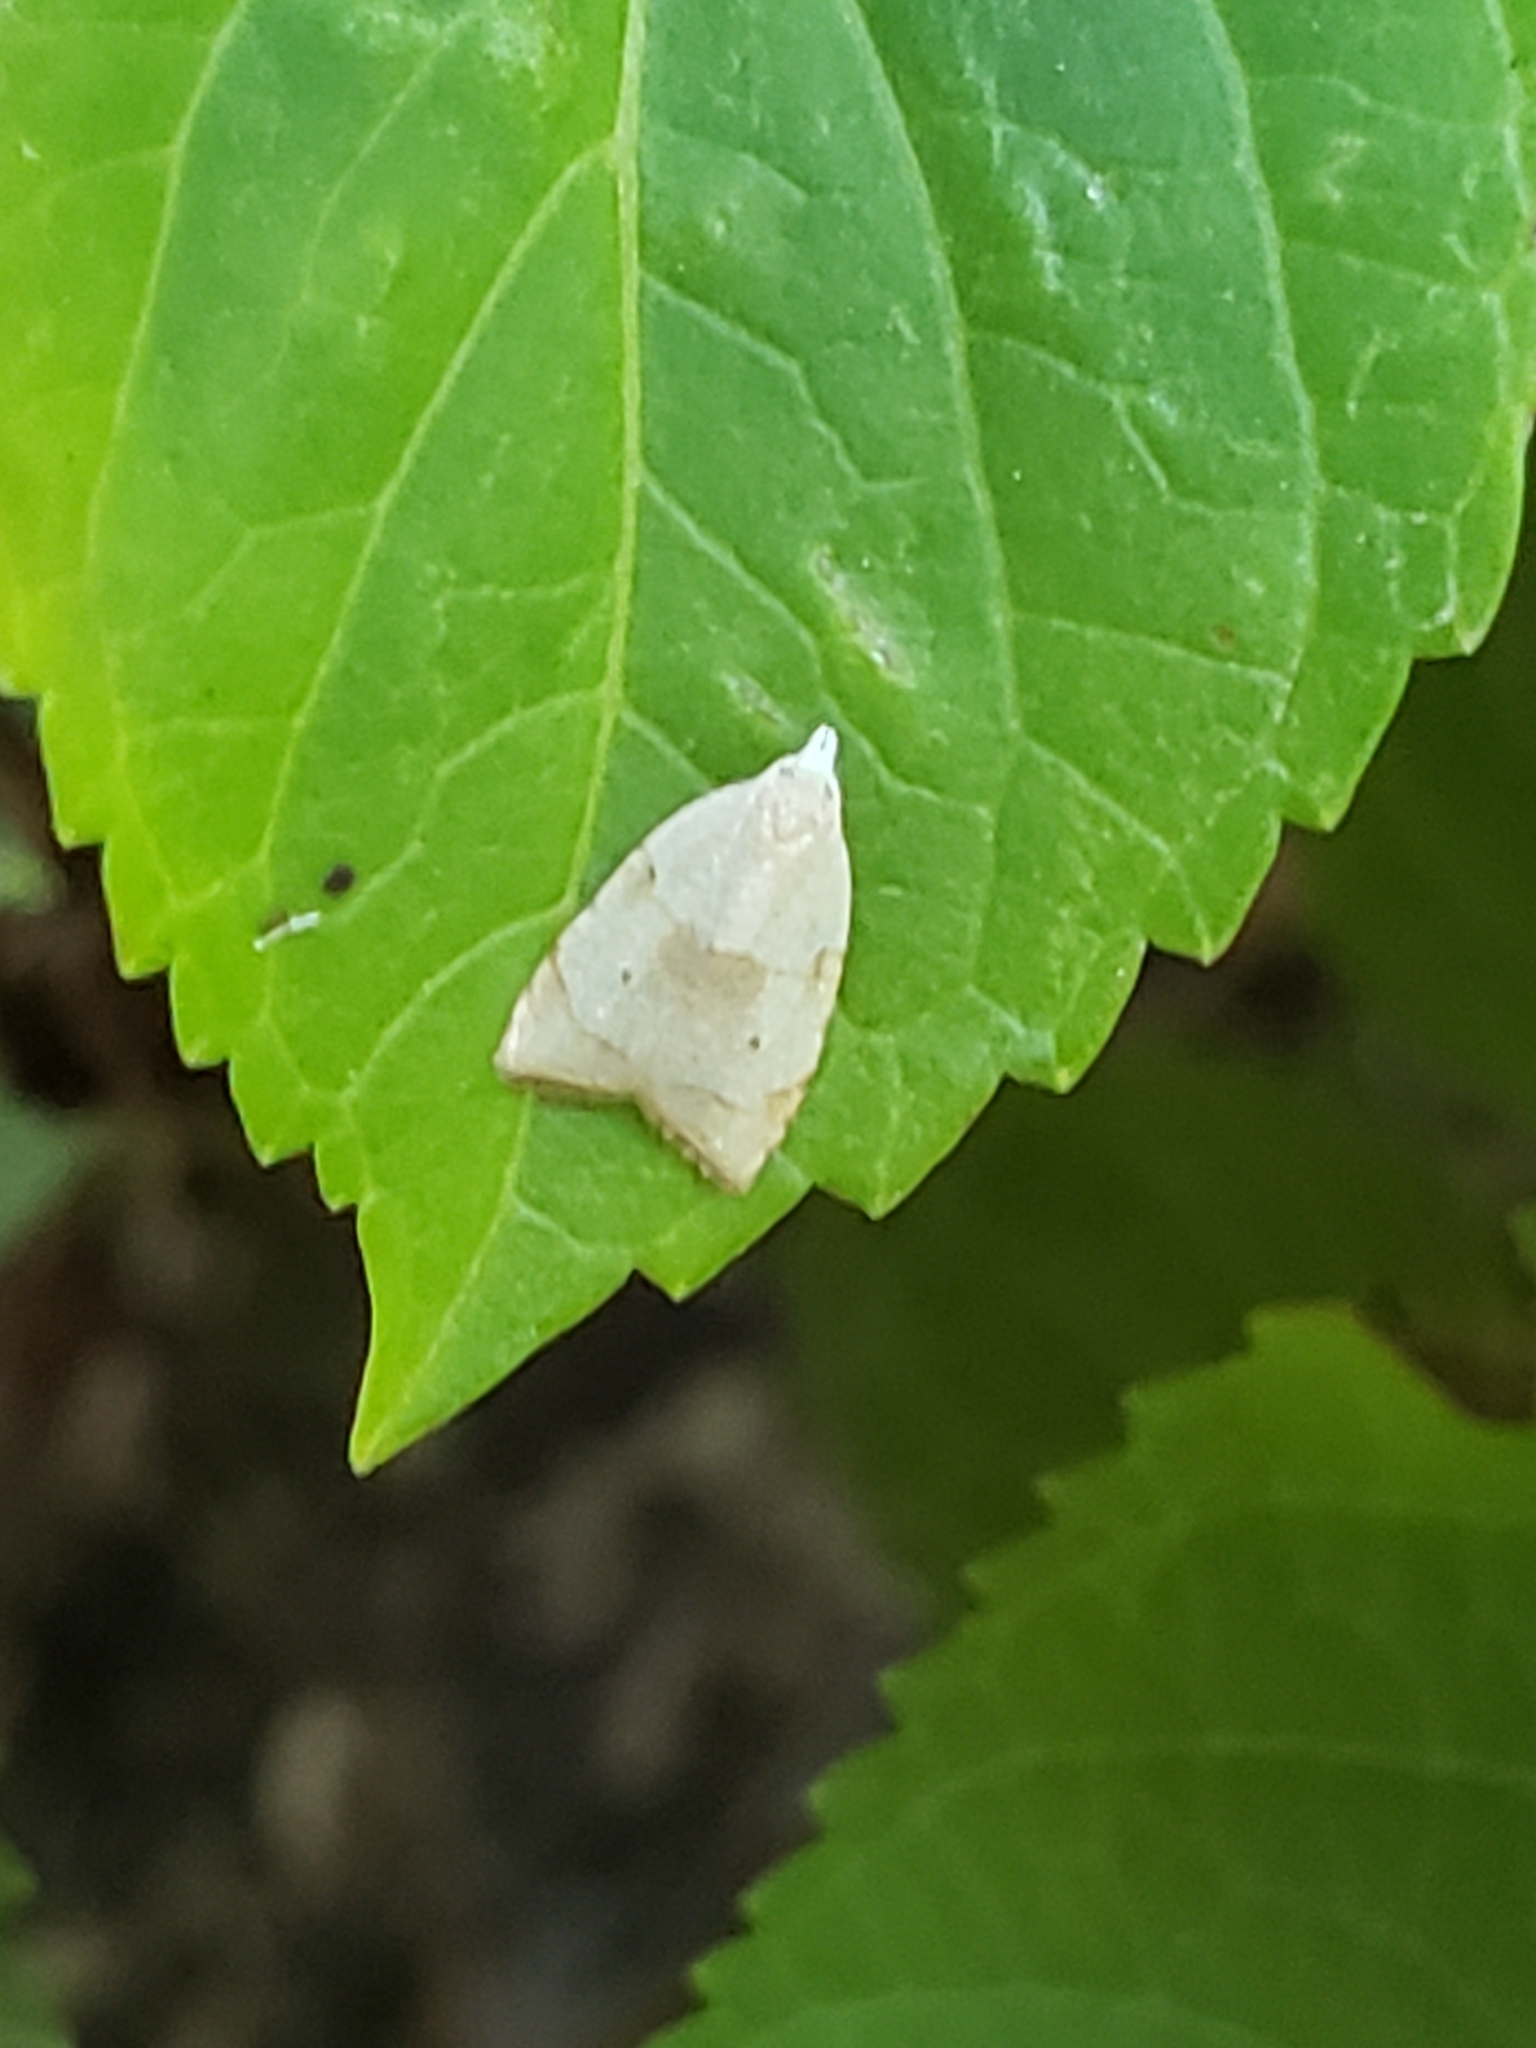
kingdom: Animalia
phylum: Arthropoda
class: Insecta
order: Lepidoptera
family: Tortricidae
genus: Coelostathma
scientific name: Coelostathma discopunctana
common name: Batman moth
